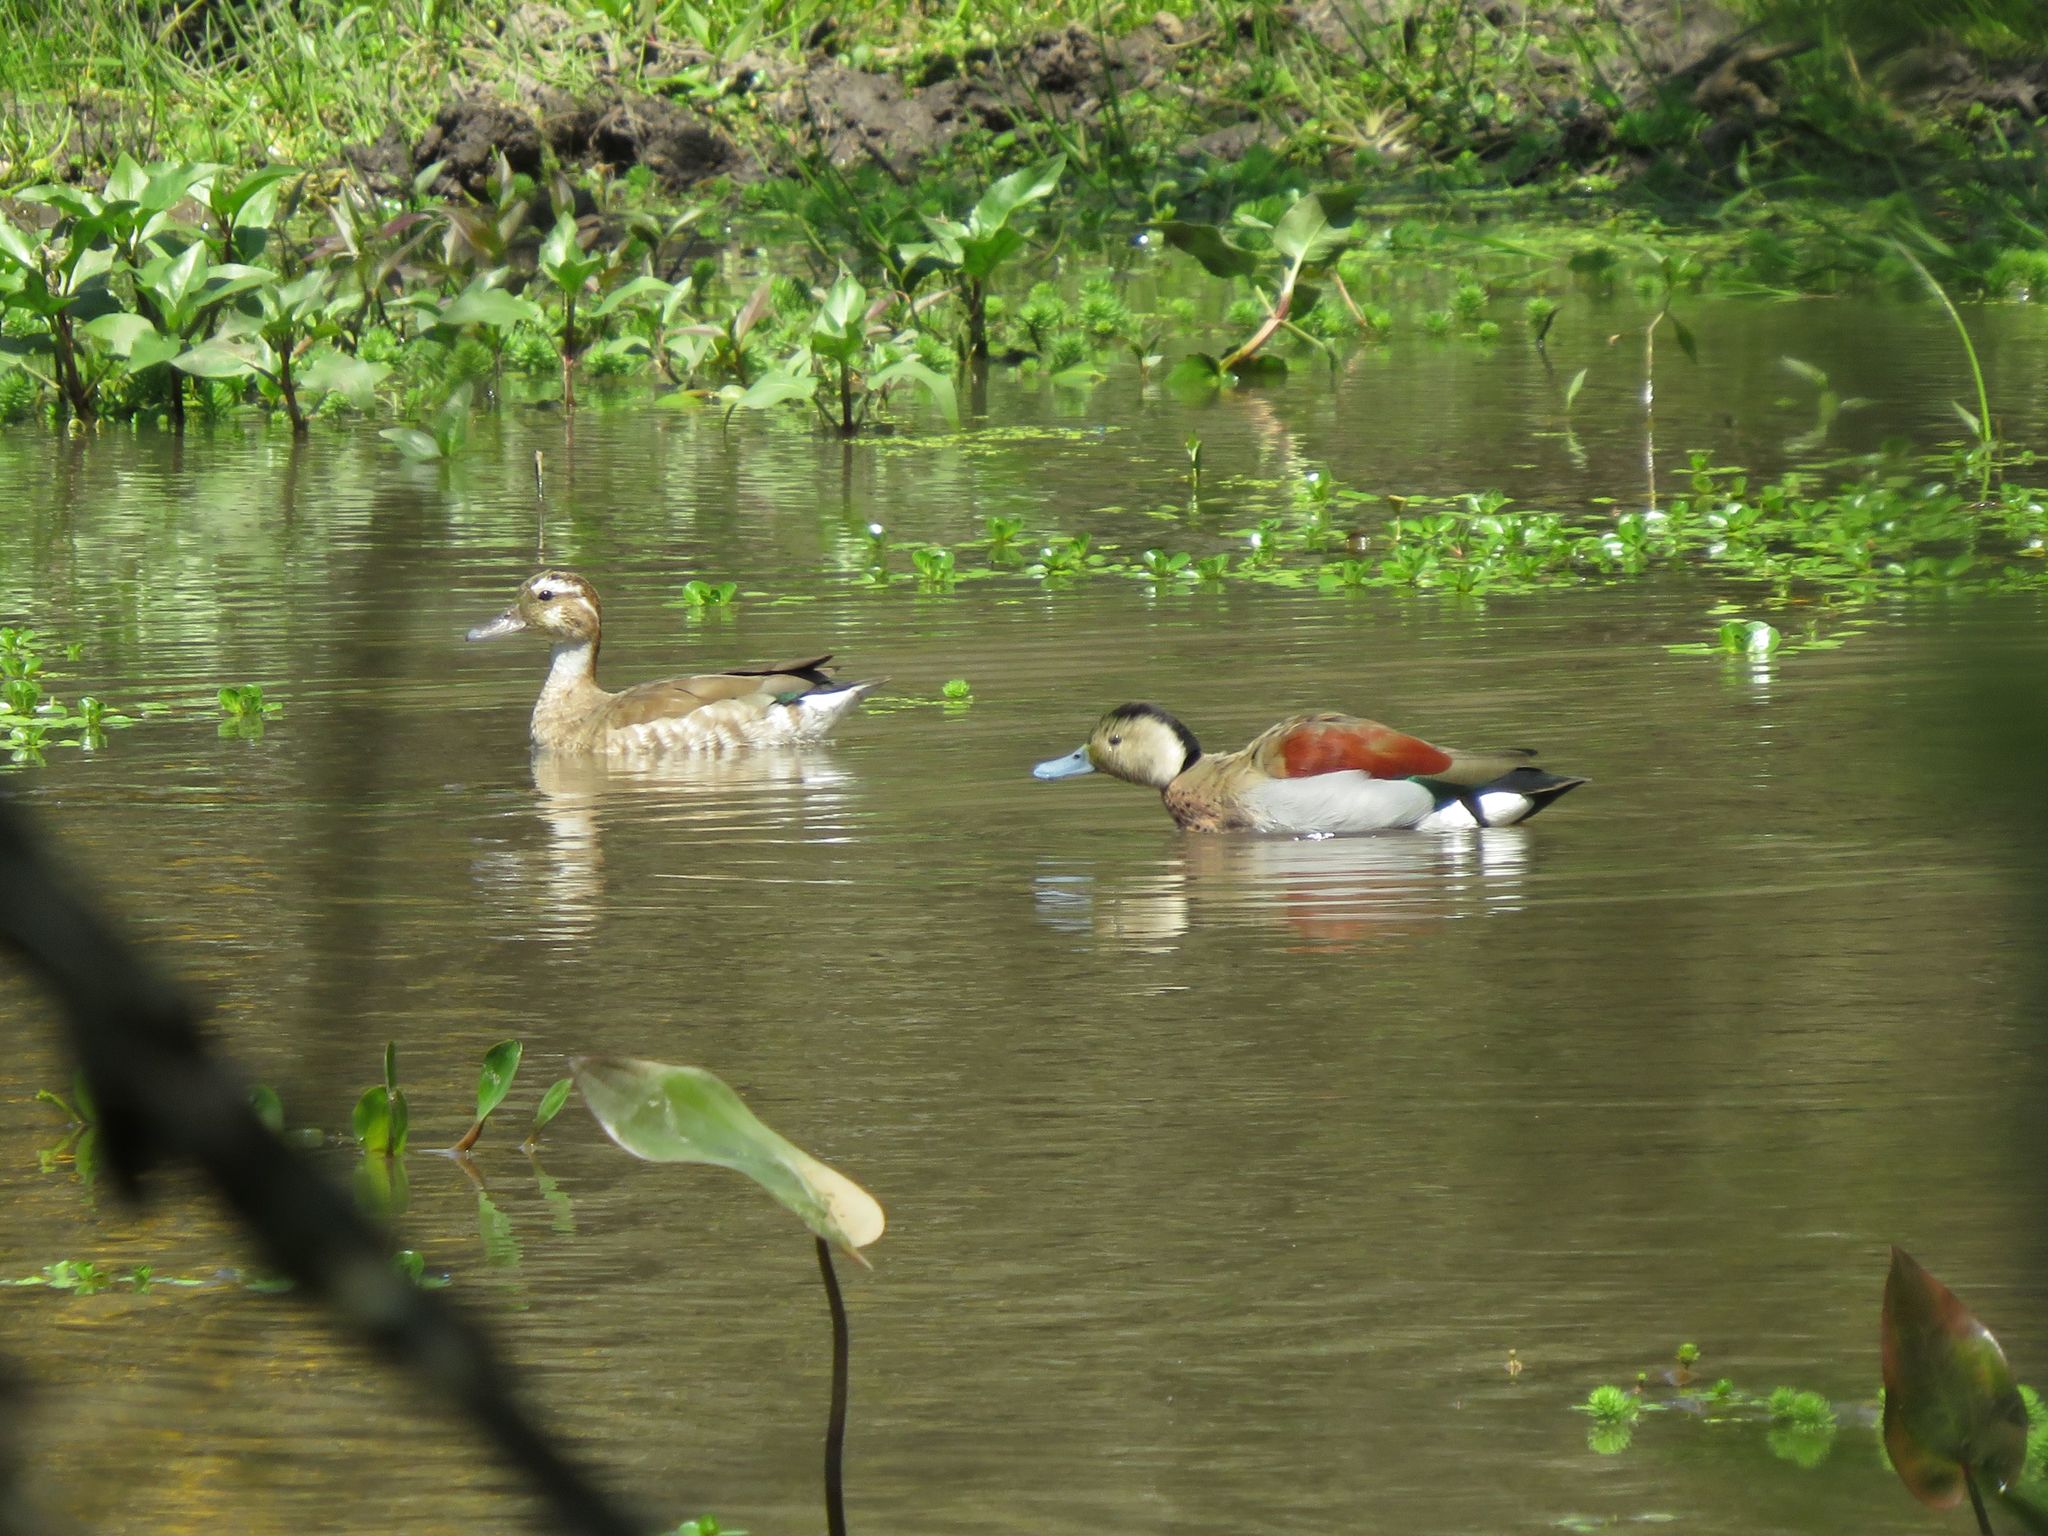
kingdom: Animalia
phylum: Chordata
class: Aves
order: Anseriformes
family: Anatidae
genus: Callonetta
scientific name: Callonetta leucophrys
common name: Ringed teal
